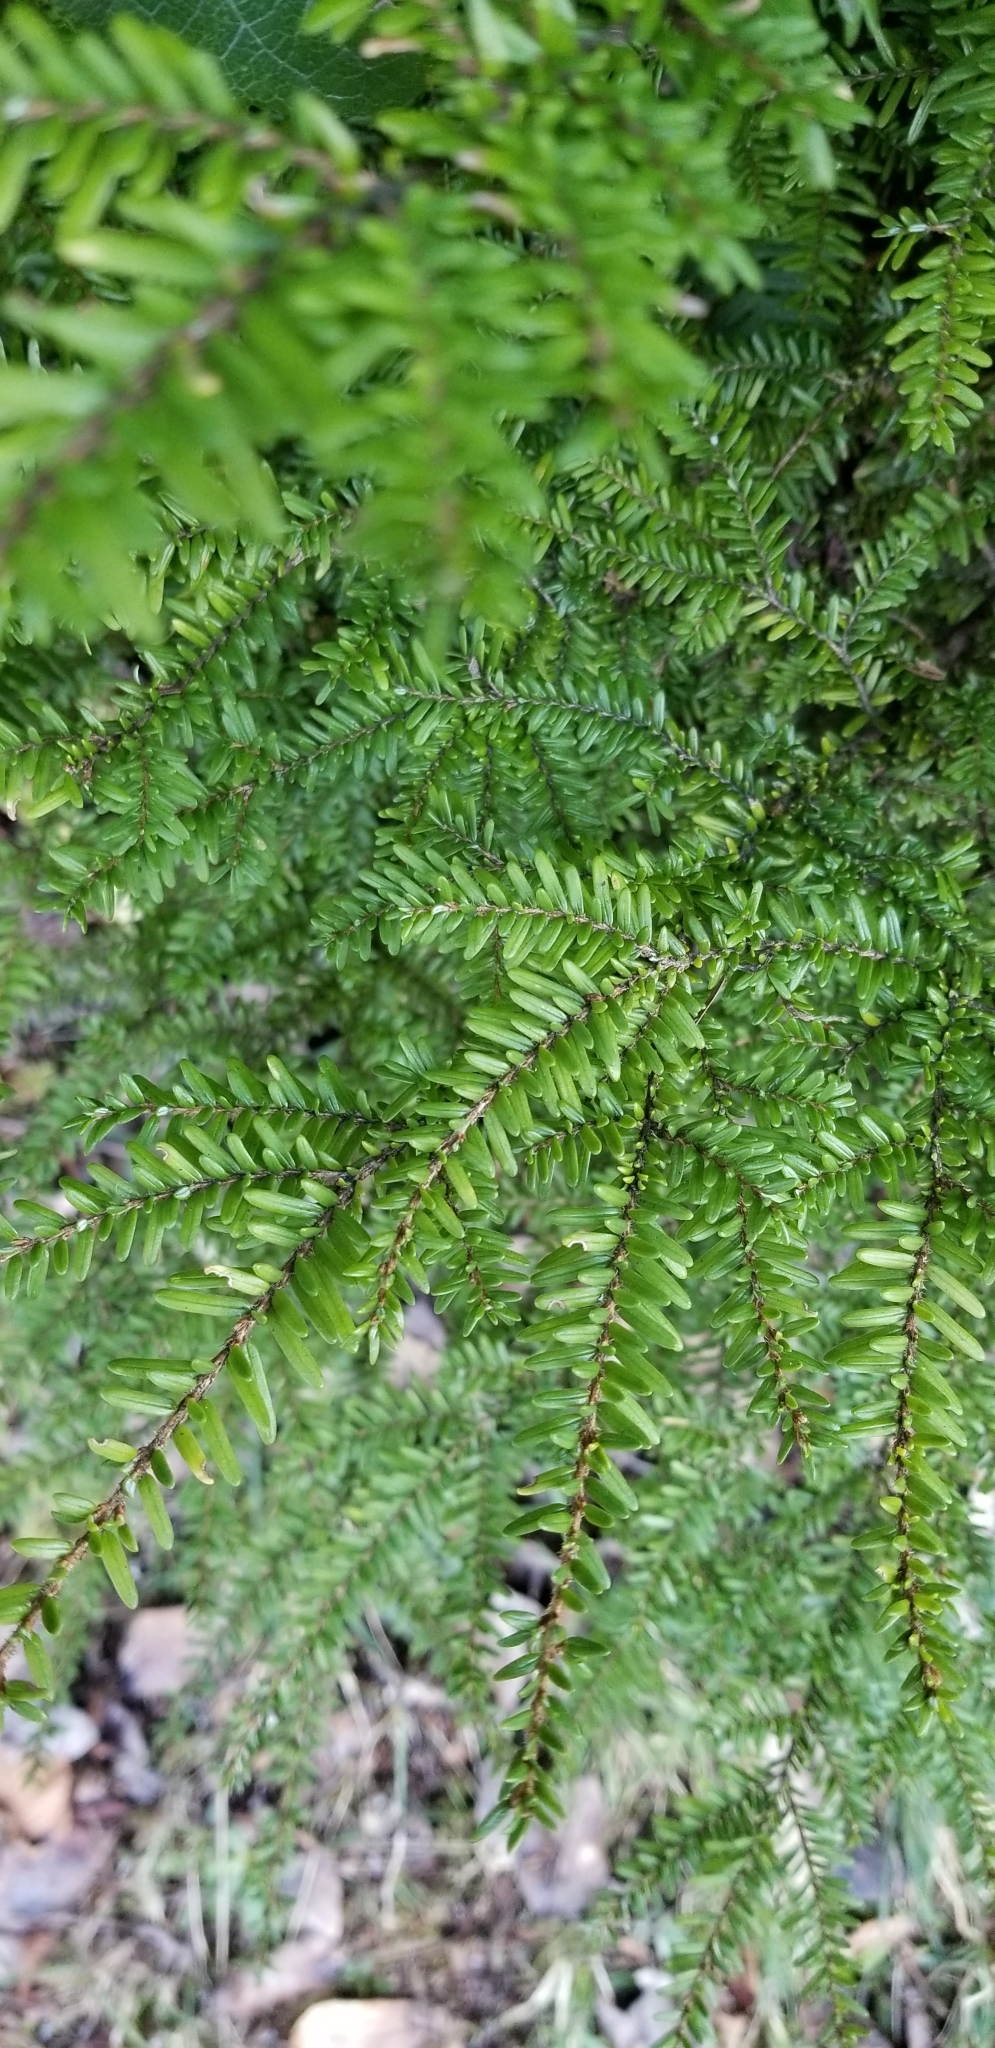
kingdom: Plantae
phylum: Tracheophyta
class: Pinopsida
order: Pinales
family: Pinaceae
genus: Tsuga
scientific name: Tsuga heterophylla
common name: Western hemlock
